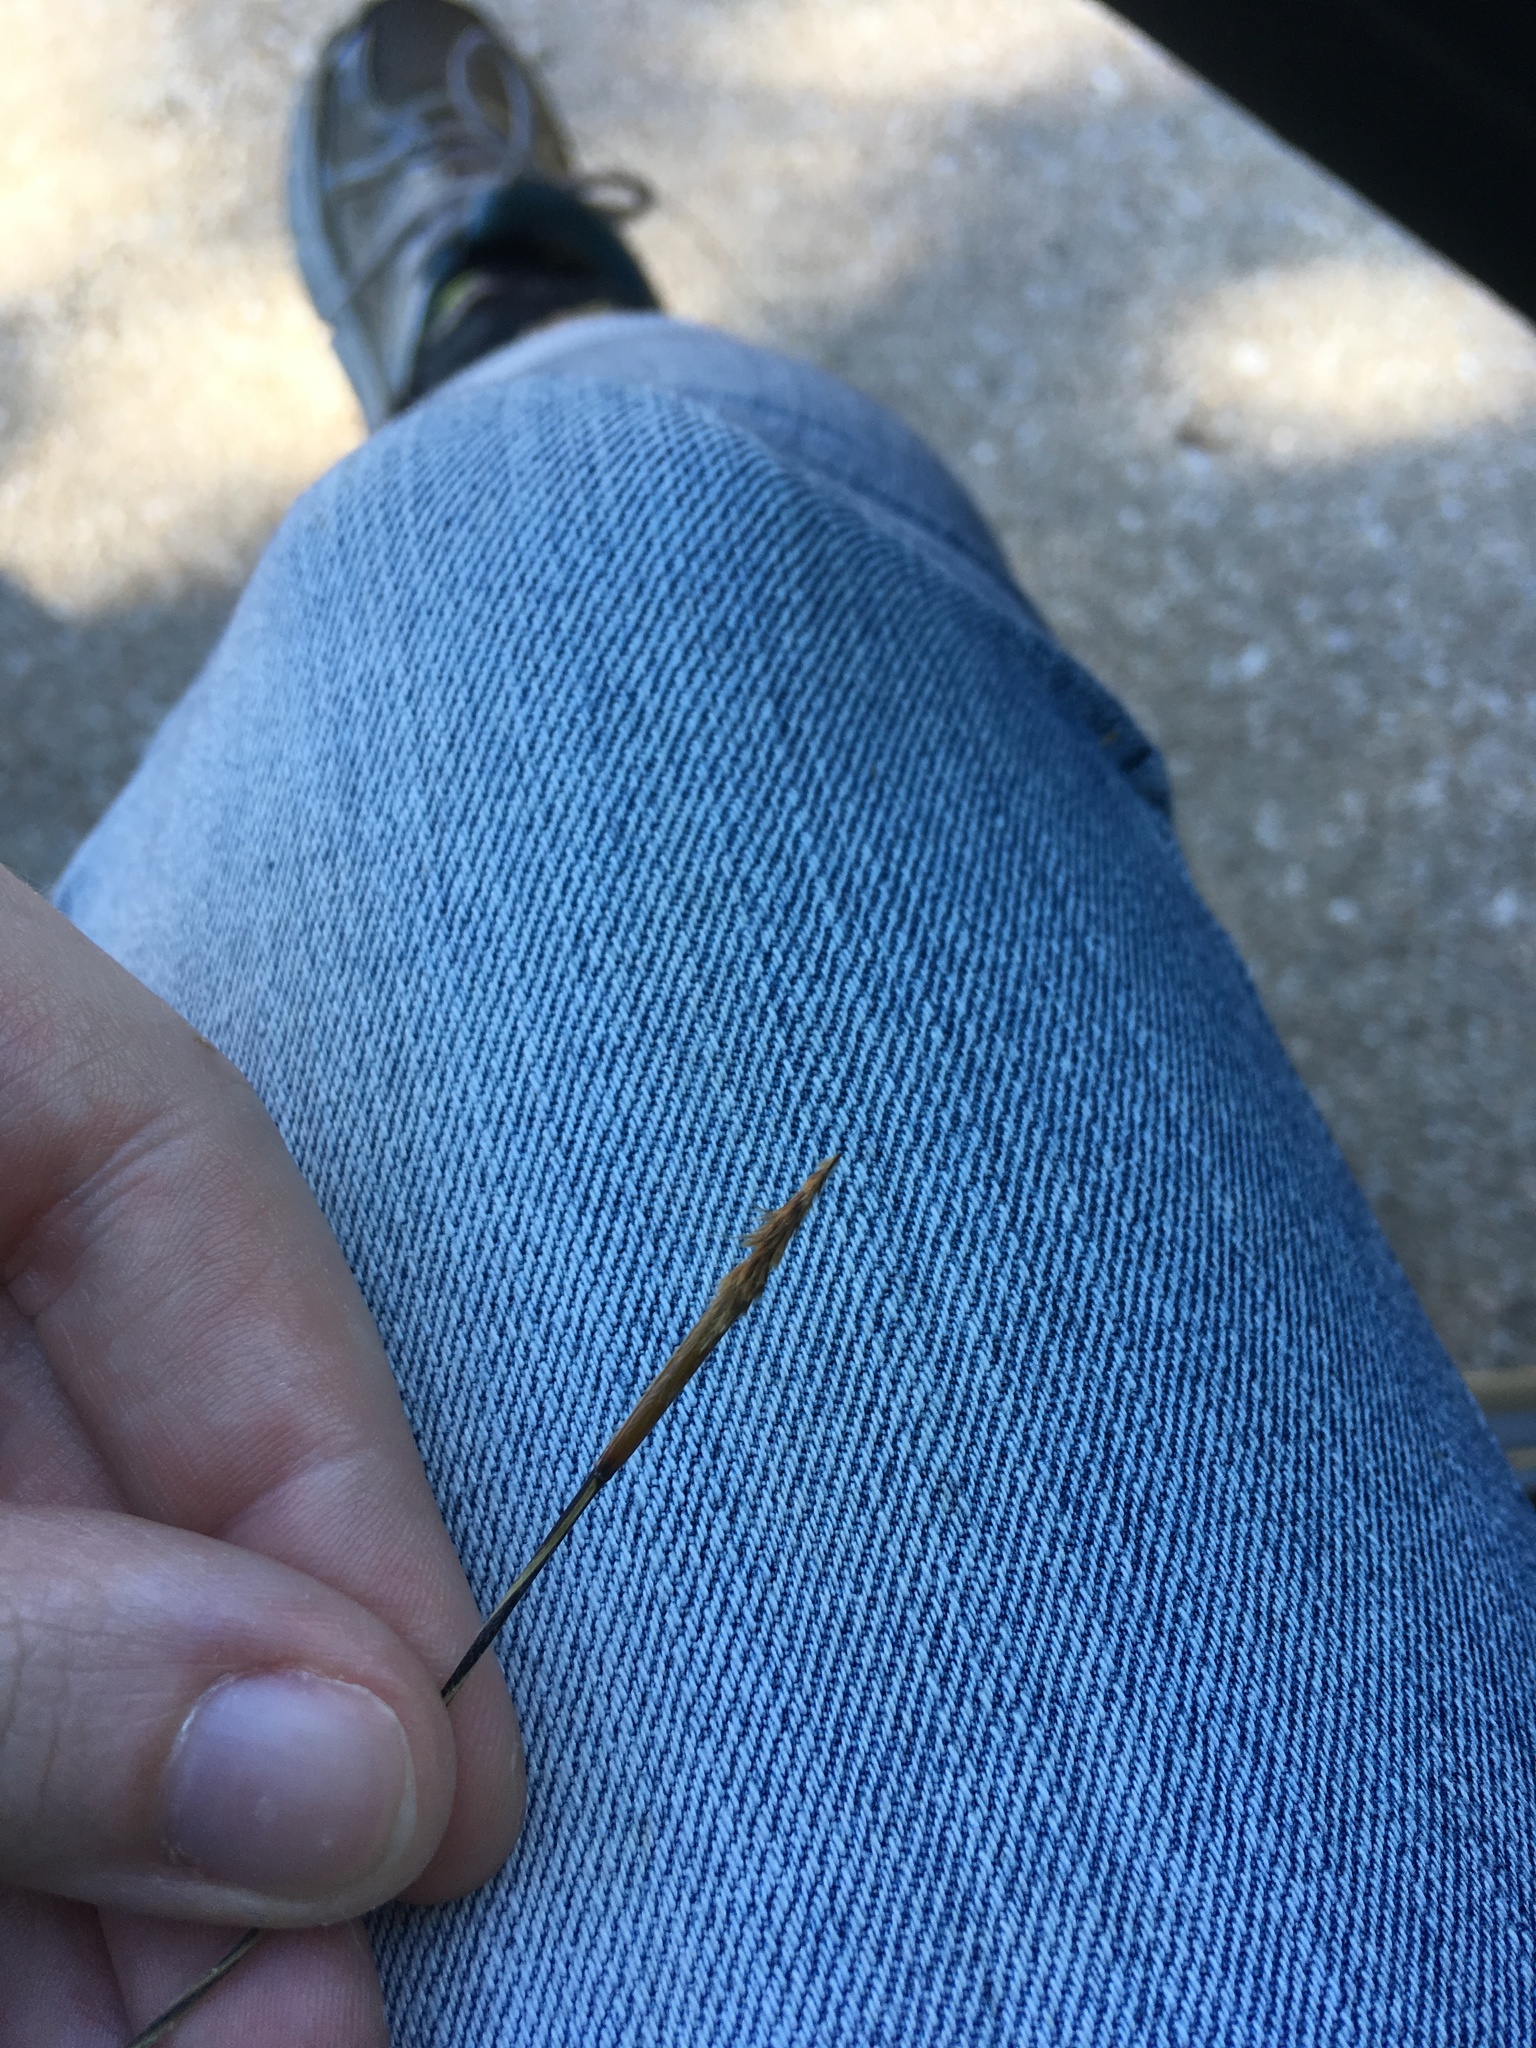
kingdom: Plantae
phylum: Tracheophyta
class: Liliopsida
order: Poales
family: Poaceae
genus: Hesperostipa
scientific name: Hesperostipa spartea
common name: Porcupine grass
